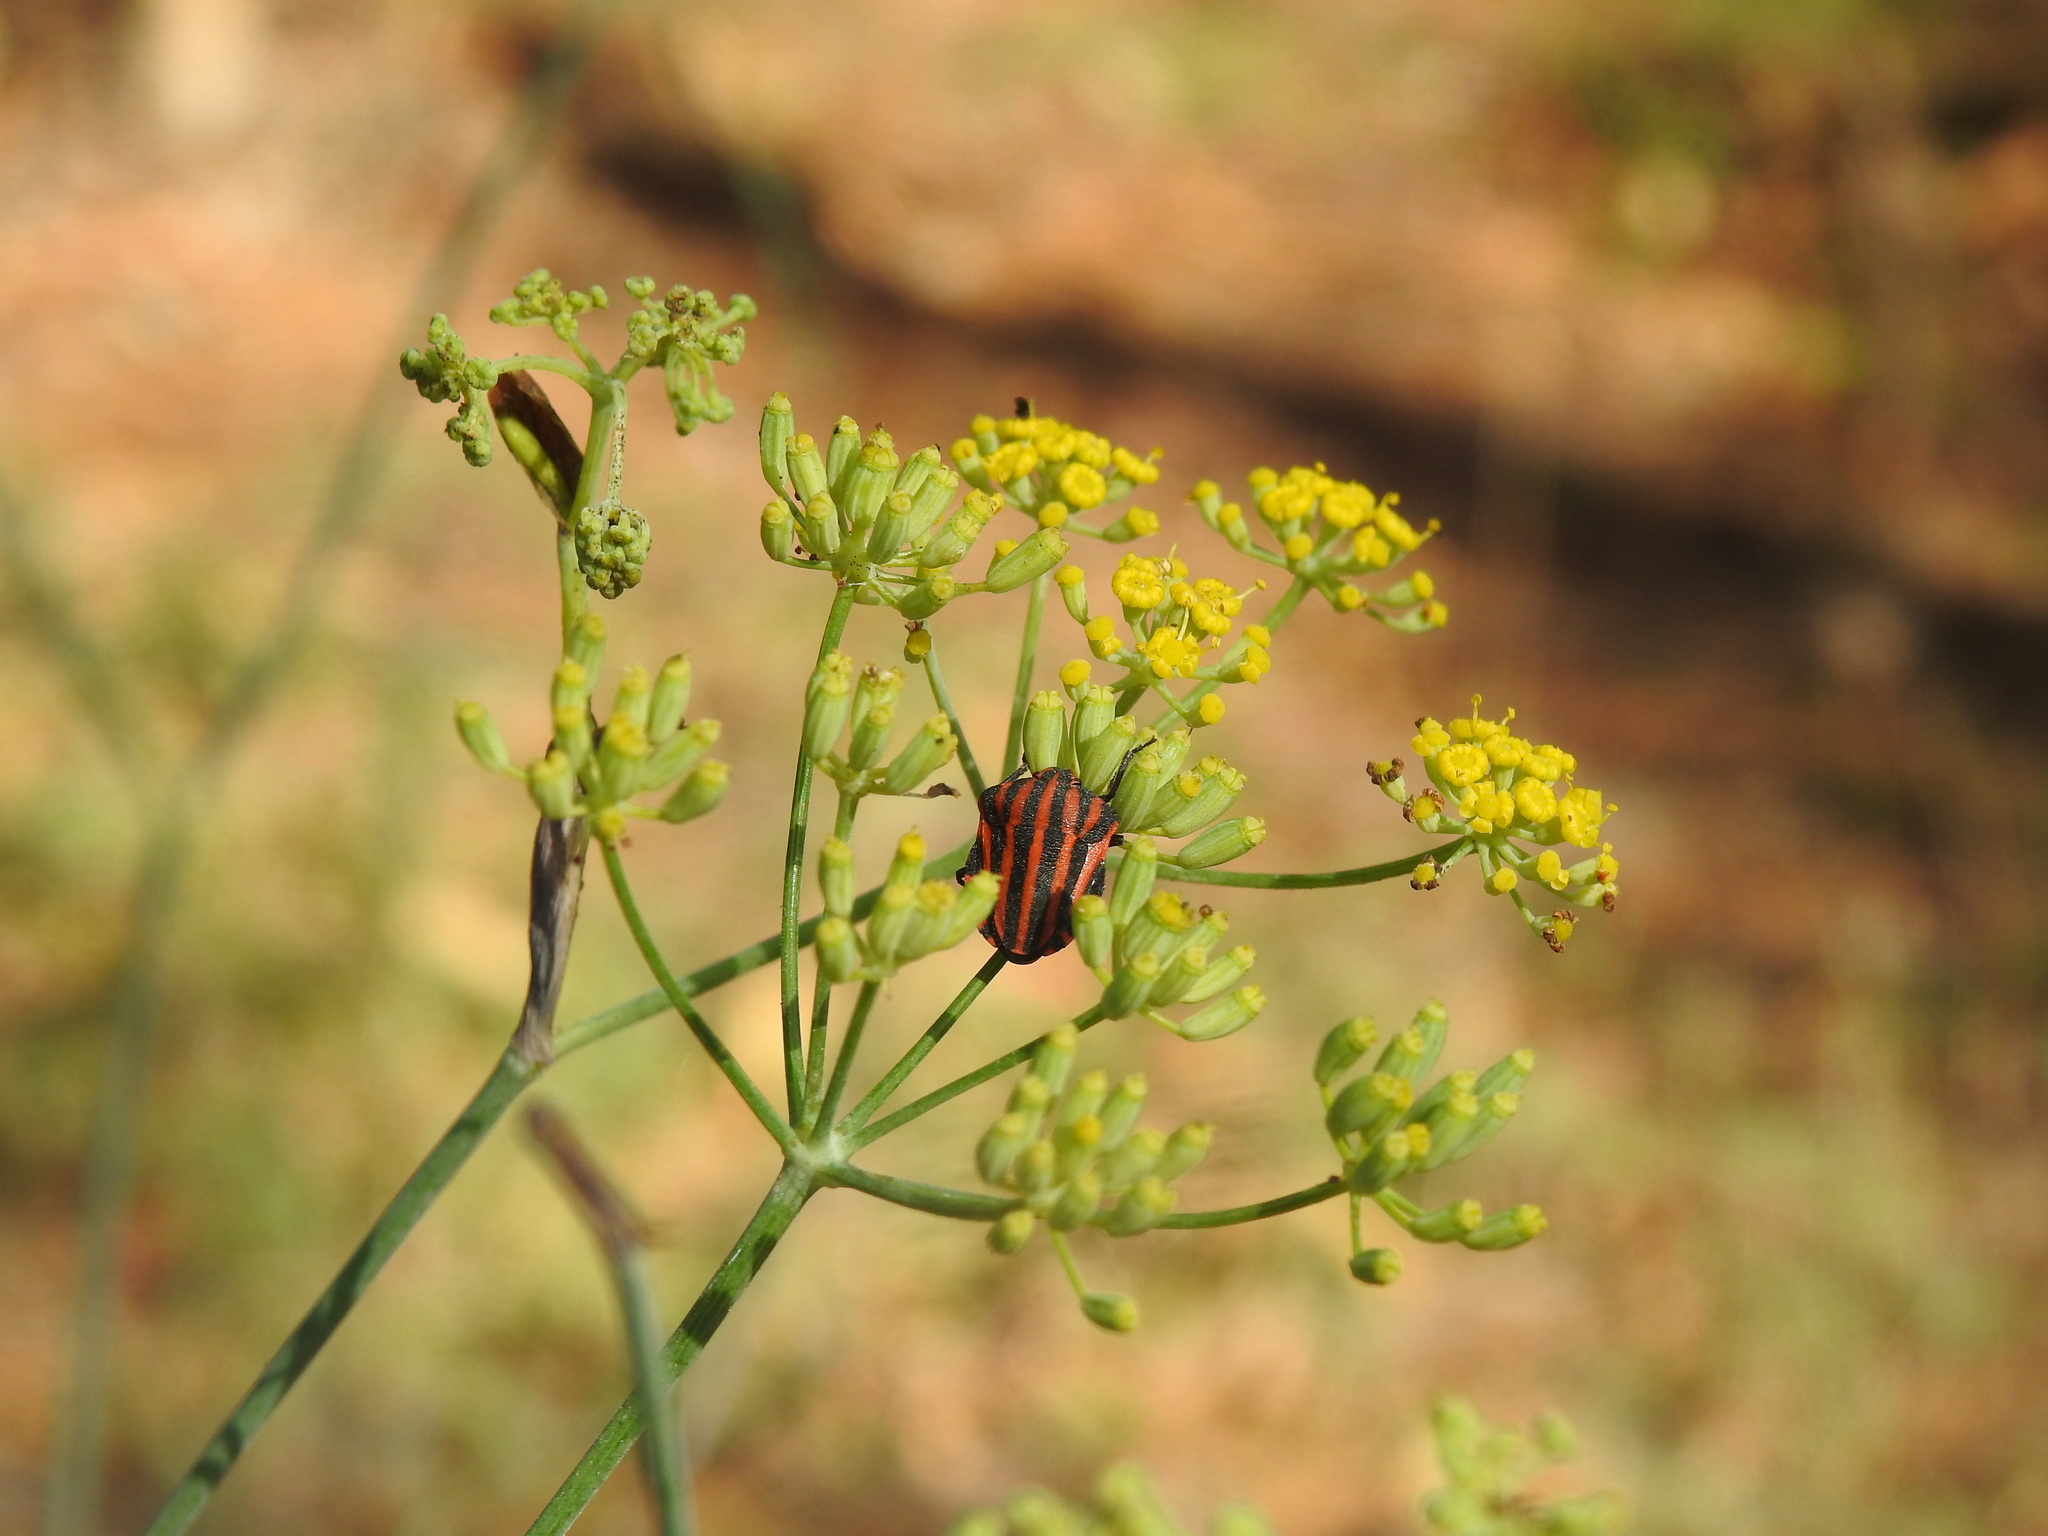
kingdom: Animalia
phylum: Arthropoda
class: Insecta
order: Hemiptera
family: Pentatomidae
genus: Graphosoma
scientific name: Graphosoma italicum
